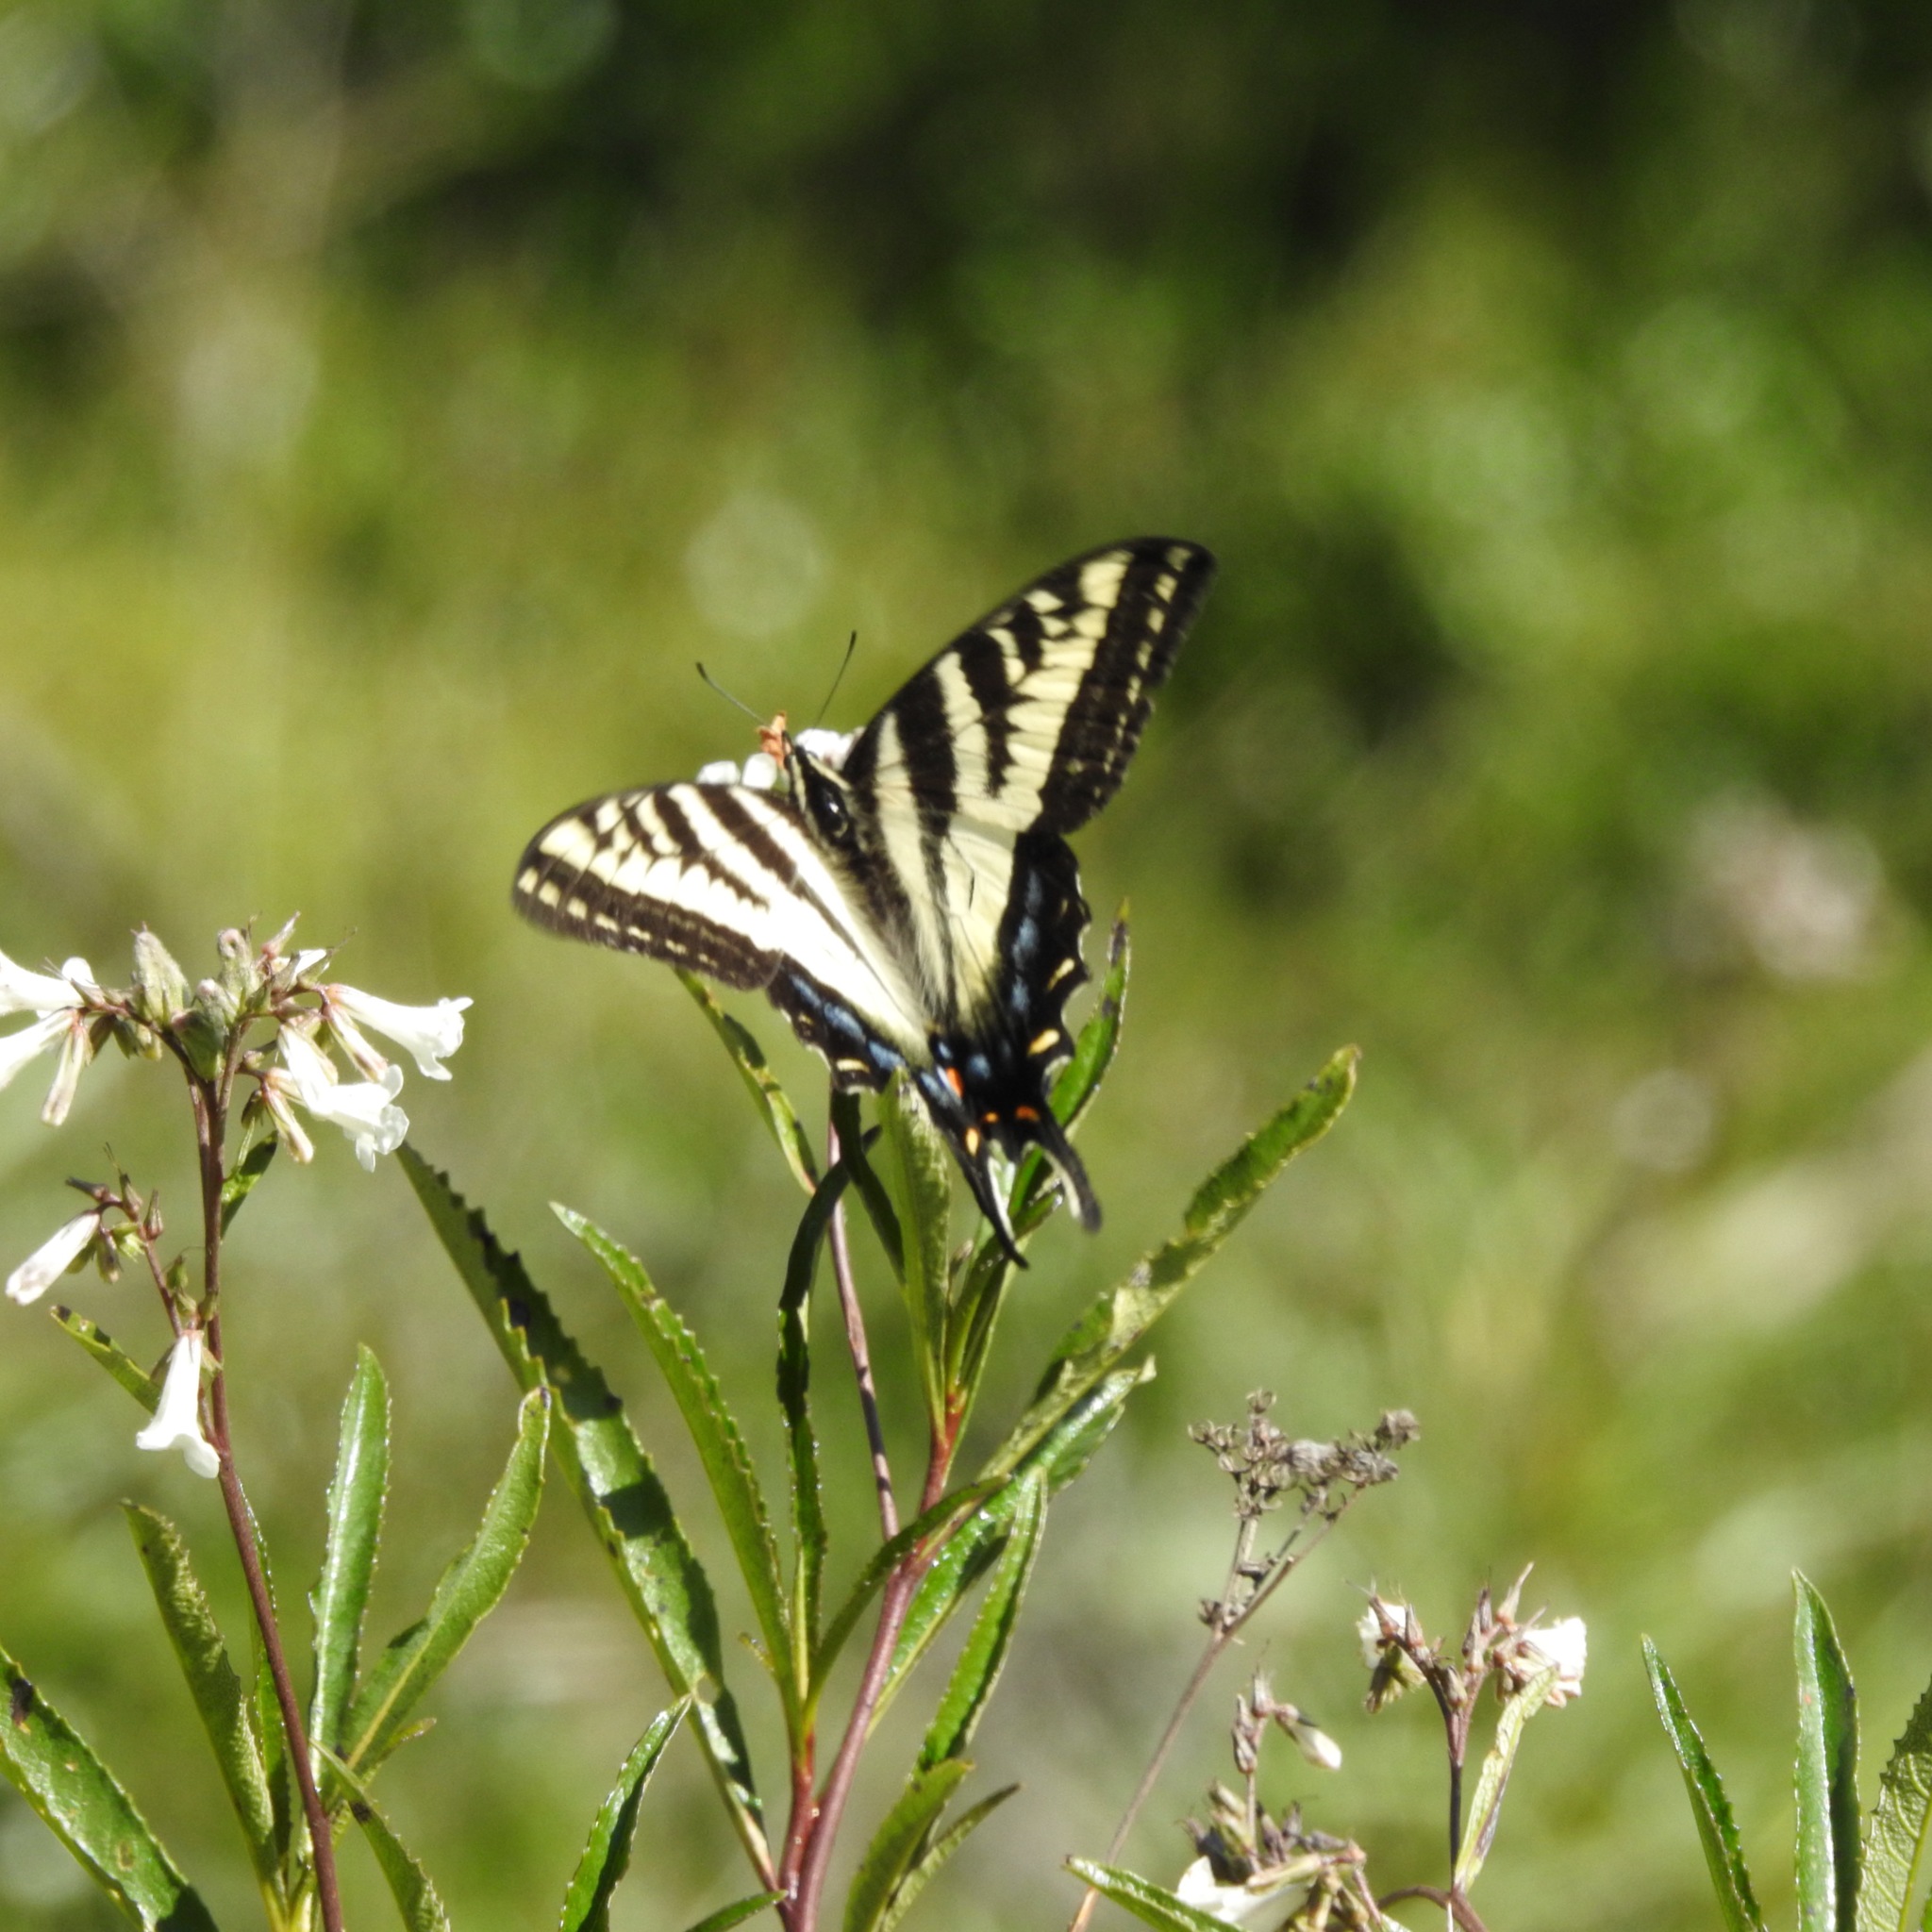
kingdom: Animalia
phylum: Arthropoda
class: Insecta
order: Lepidoptera
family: Papilionidae
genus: Papilio
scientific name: Papilio eurymedon
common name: Pale tiger swallowtail
